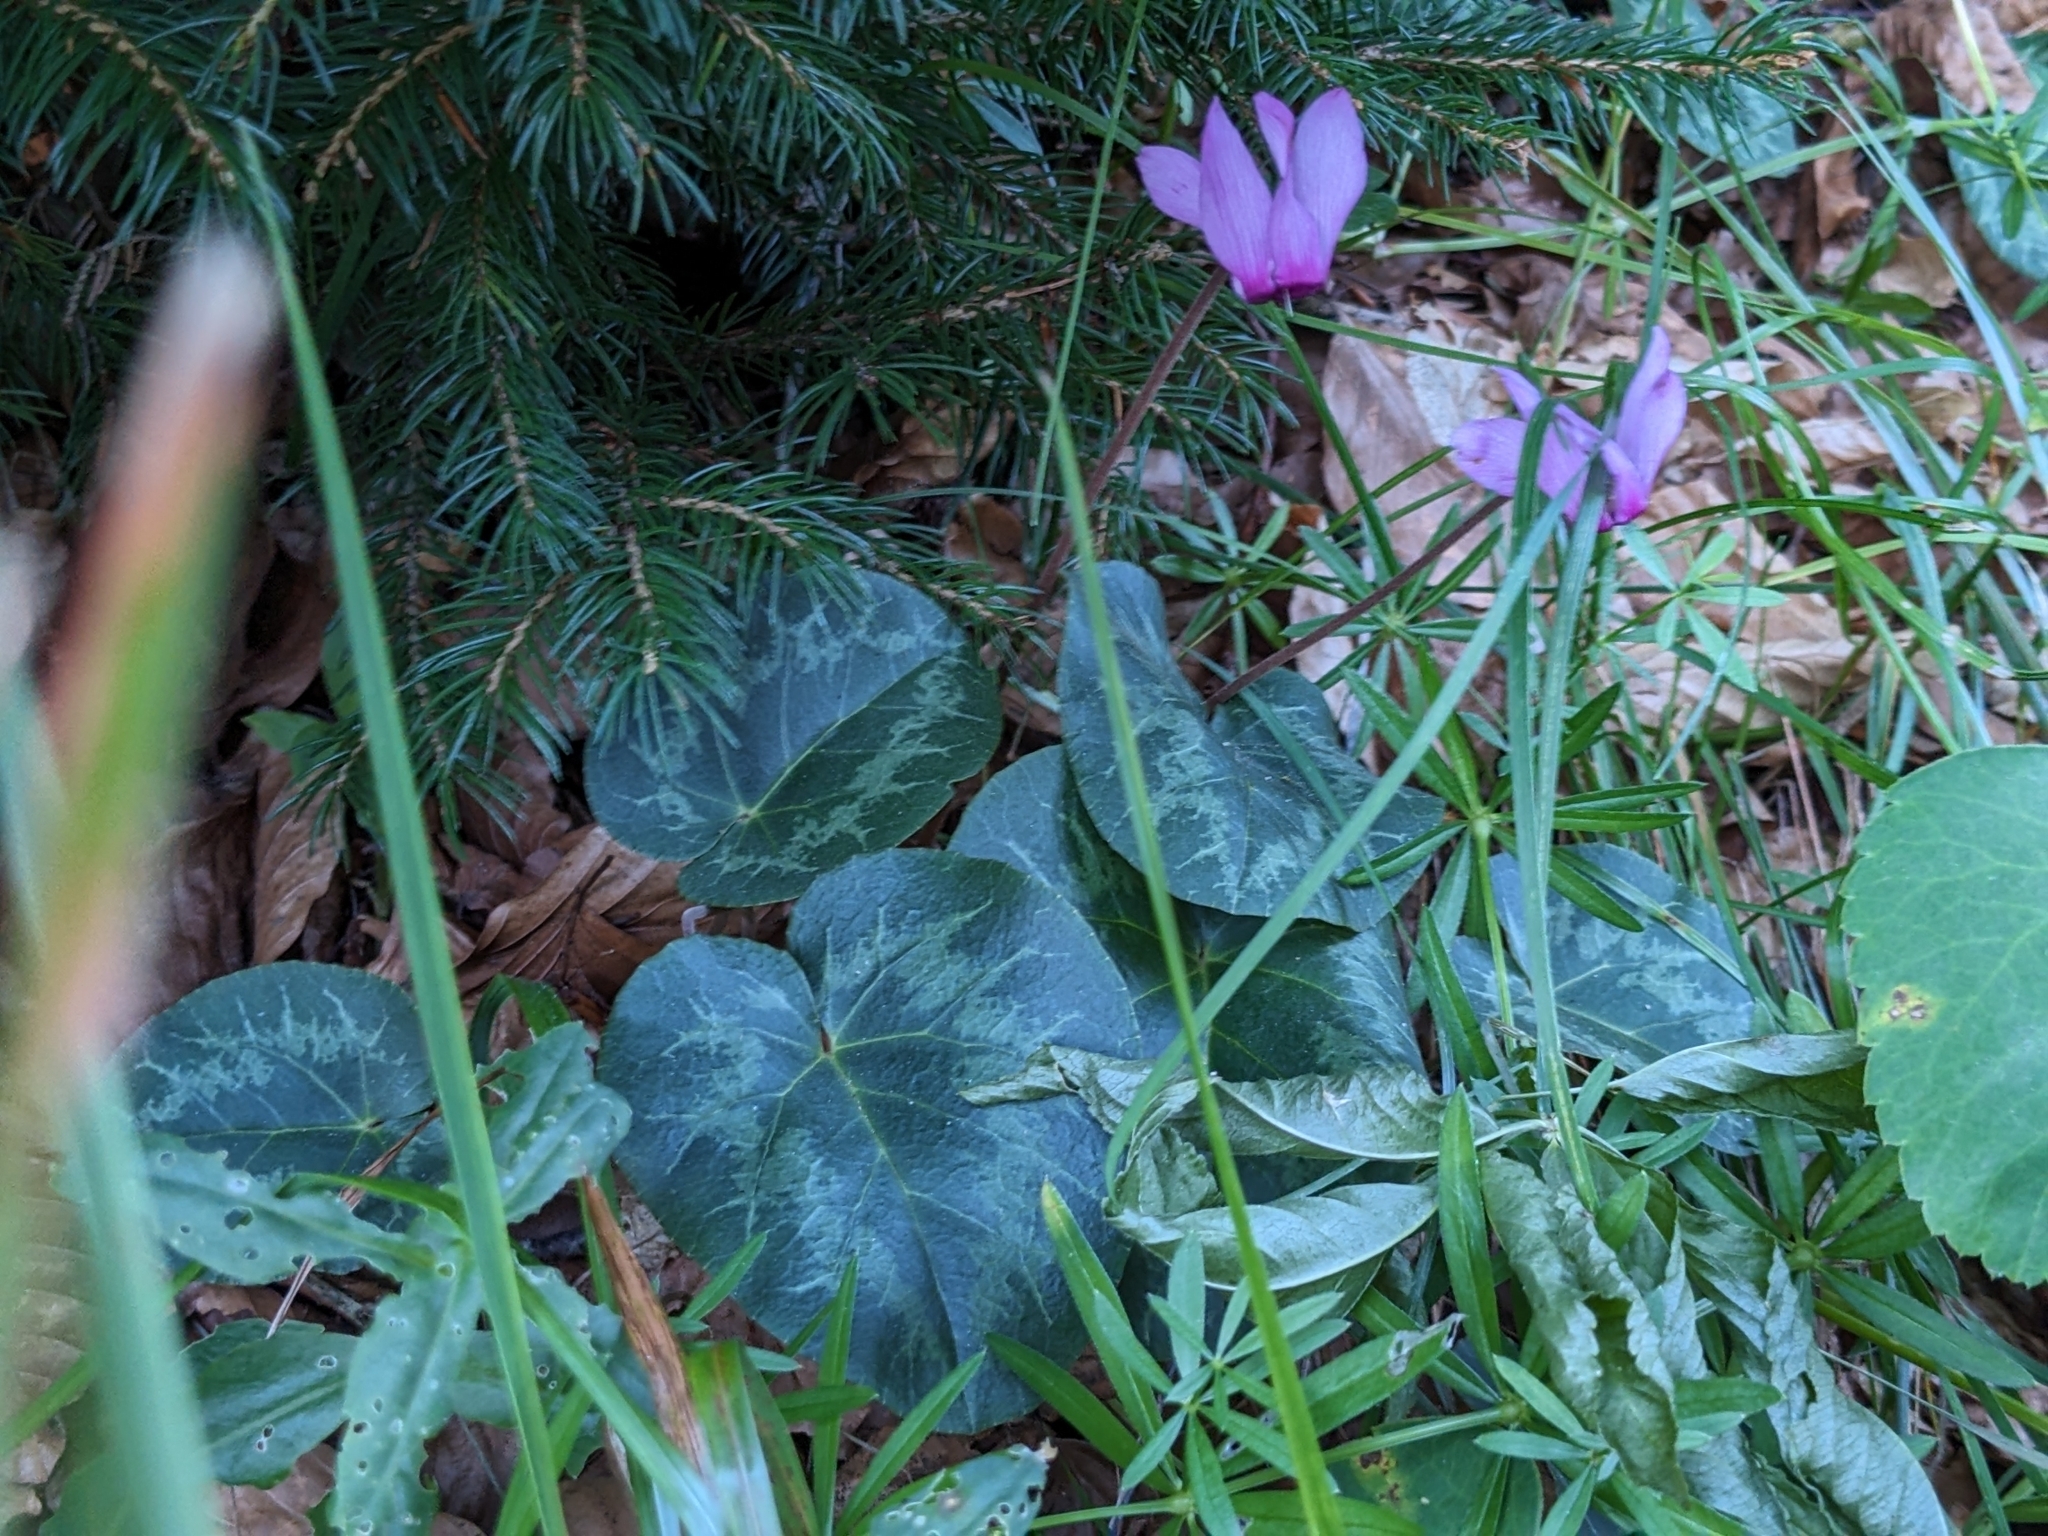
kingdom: Plantae
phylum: Tracheophyta
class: Magnoliopsida
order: Ericales
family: Primulaceae
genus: Cyclamen
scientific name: Cyclamen purpurascens
